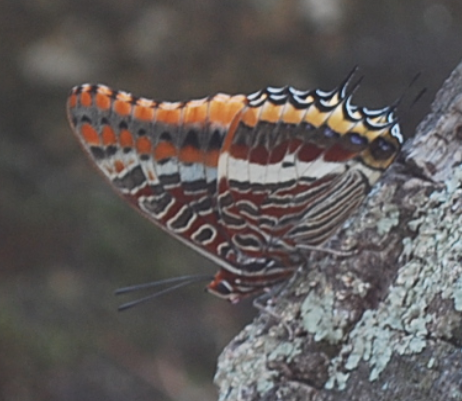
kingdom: Animalia
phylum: Arthropoda
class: Insecta
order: Lepidoptera
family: Nymphalidae
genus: Charaxes
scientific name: Charaxes jasius
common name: Two tailed pasha
